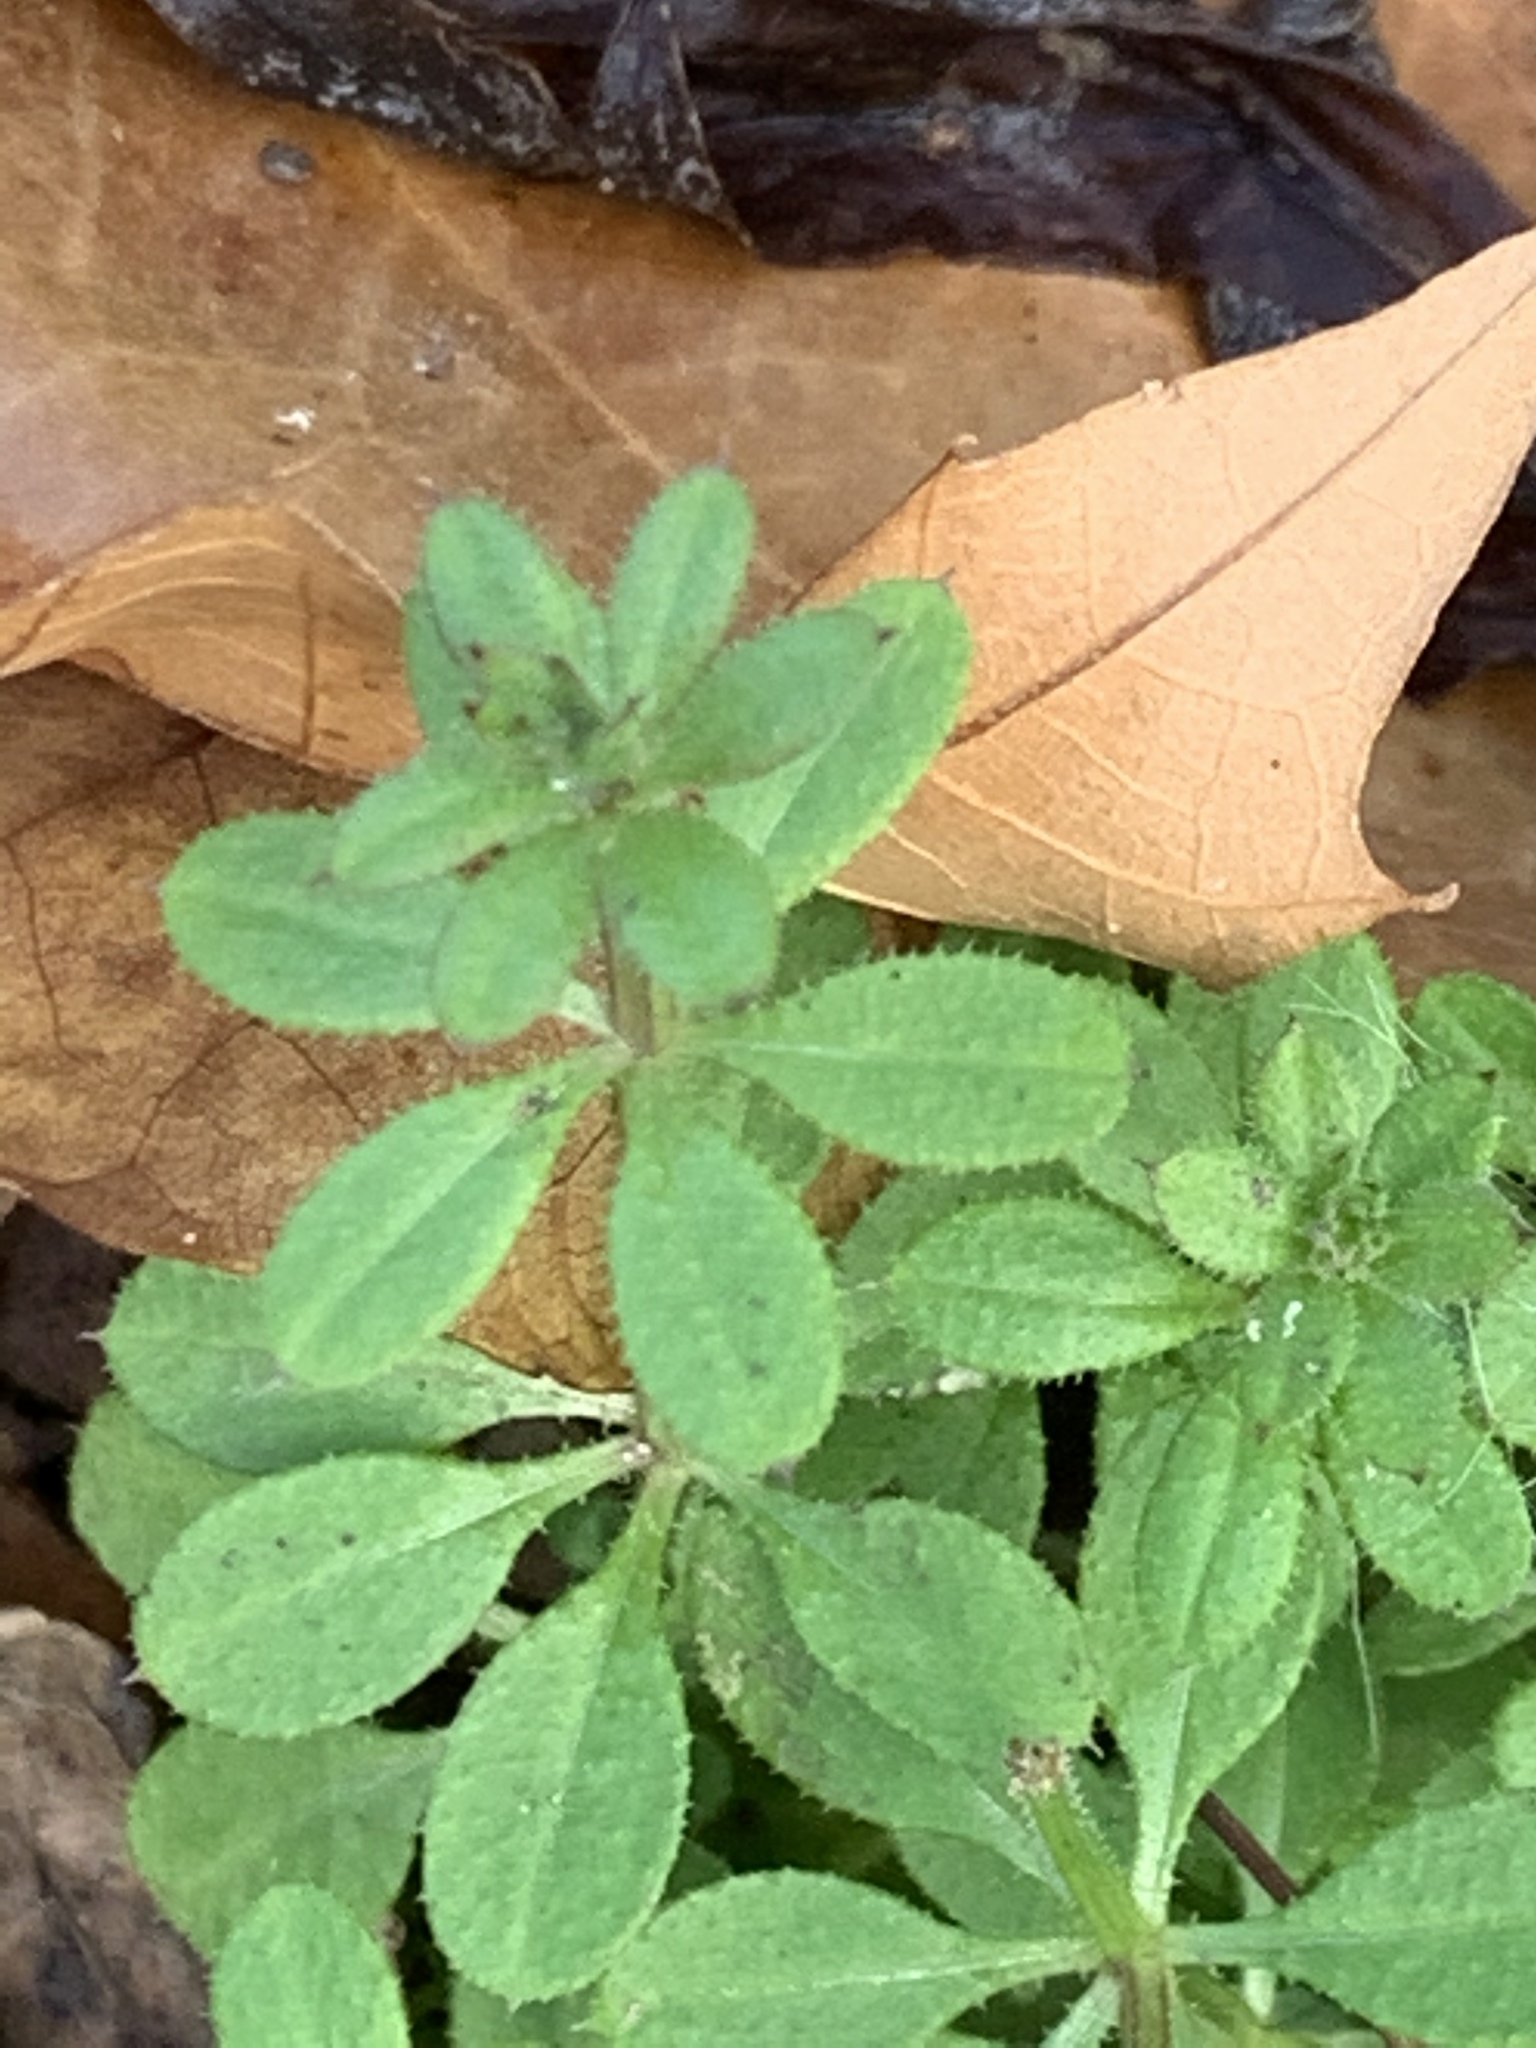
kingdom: Plantae
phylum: Tracheophyta
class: Magnoliopsida
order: Gentianales
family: Rubiaceae
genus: Galium
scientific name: Galium aparine
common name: Cleavers
